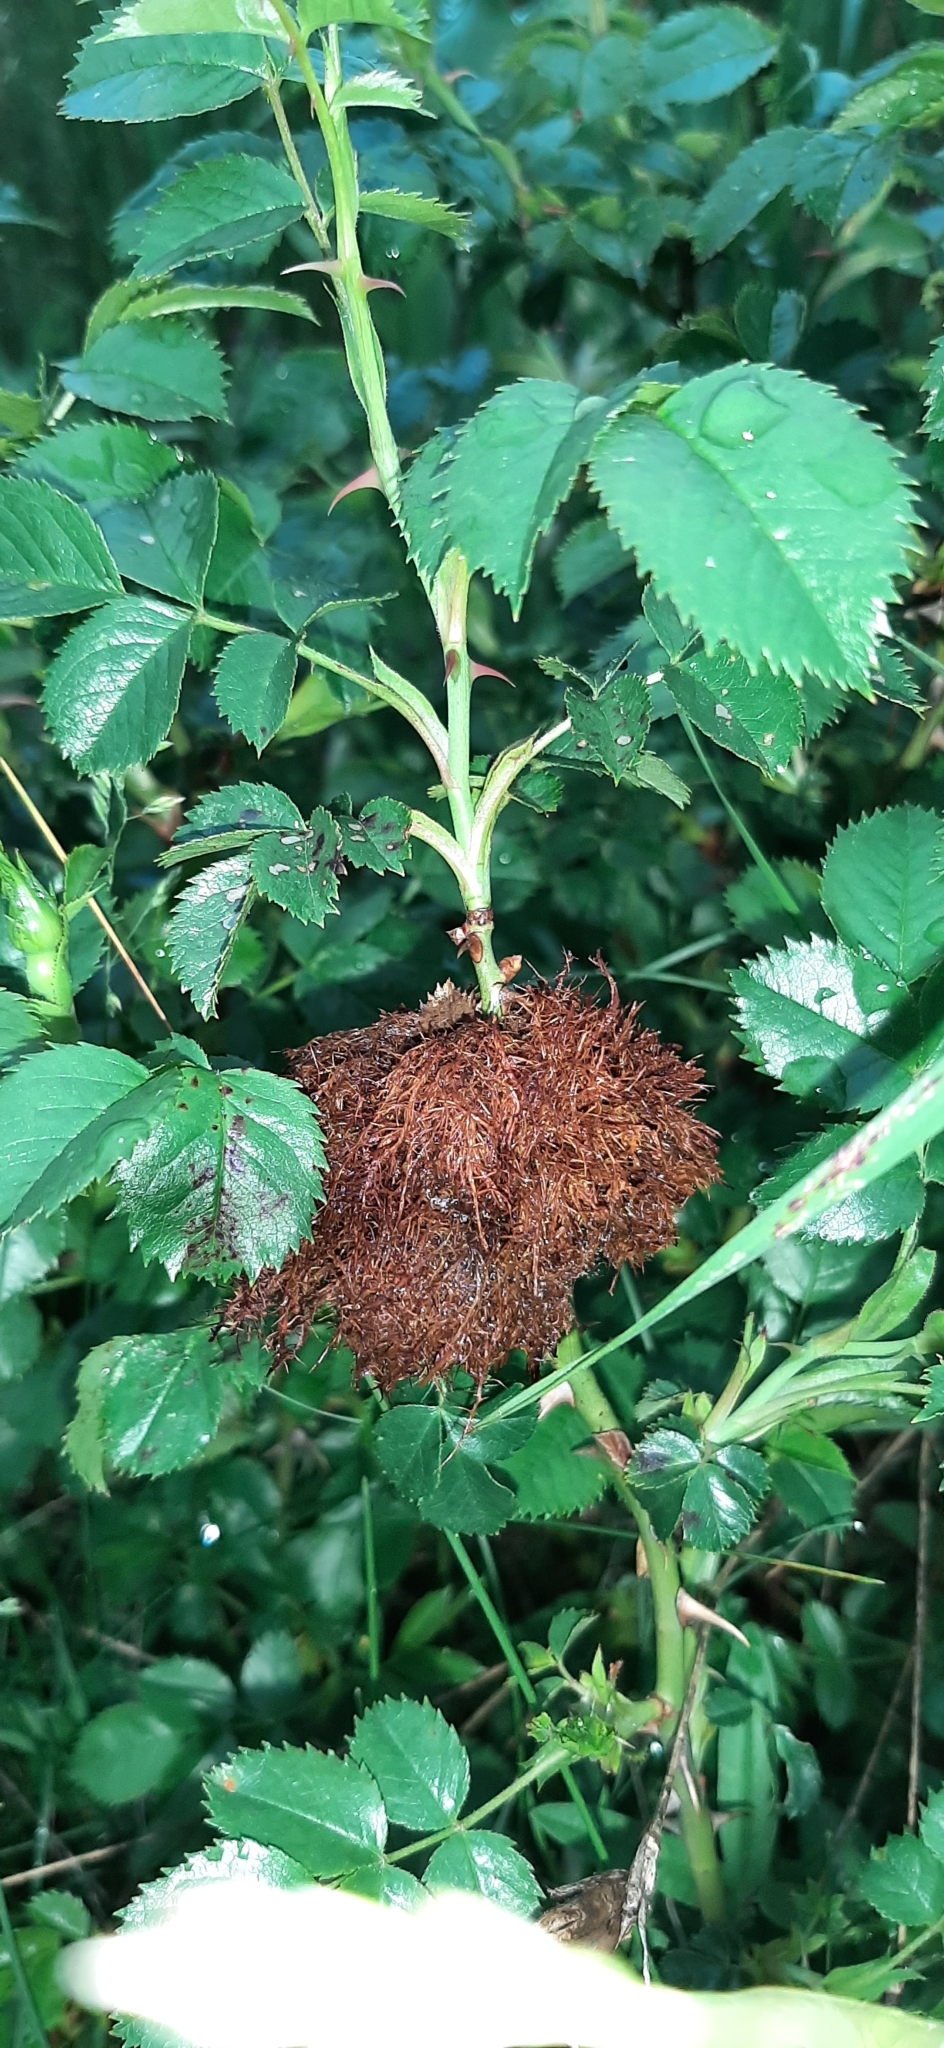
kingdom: Animalia
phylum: Arthropoda
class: Insecta
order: Hymenoptera
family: Cynipidae
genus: Diplolepis
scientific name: Diplolepis rosae
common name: Bedeguar gall
